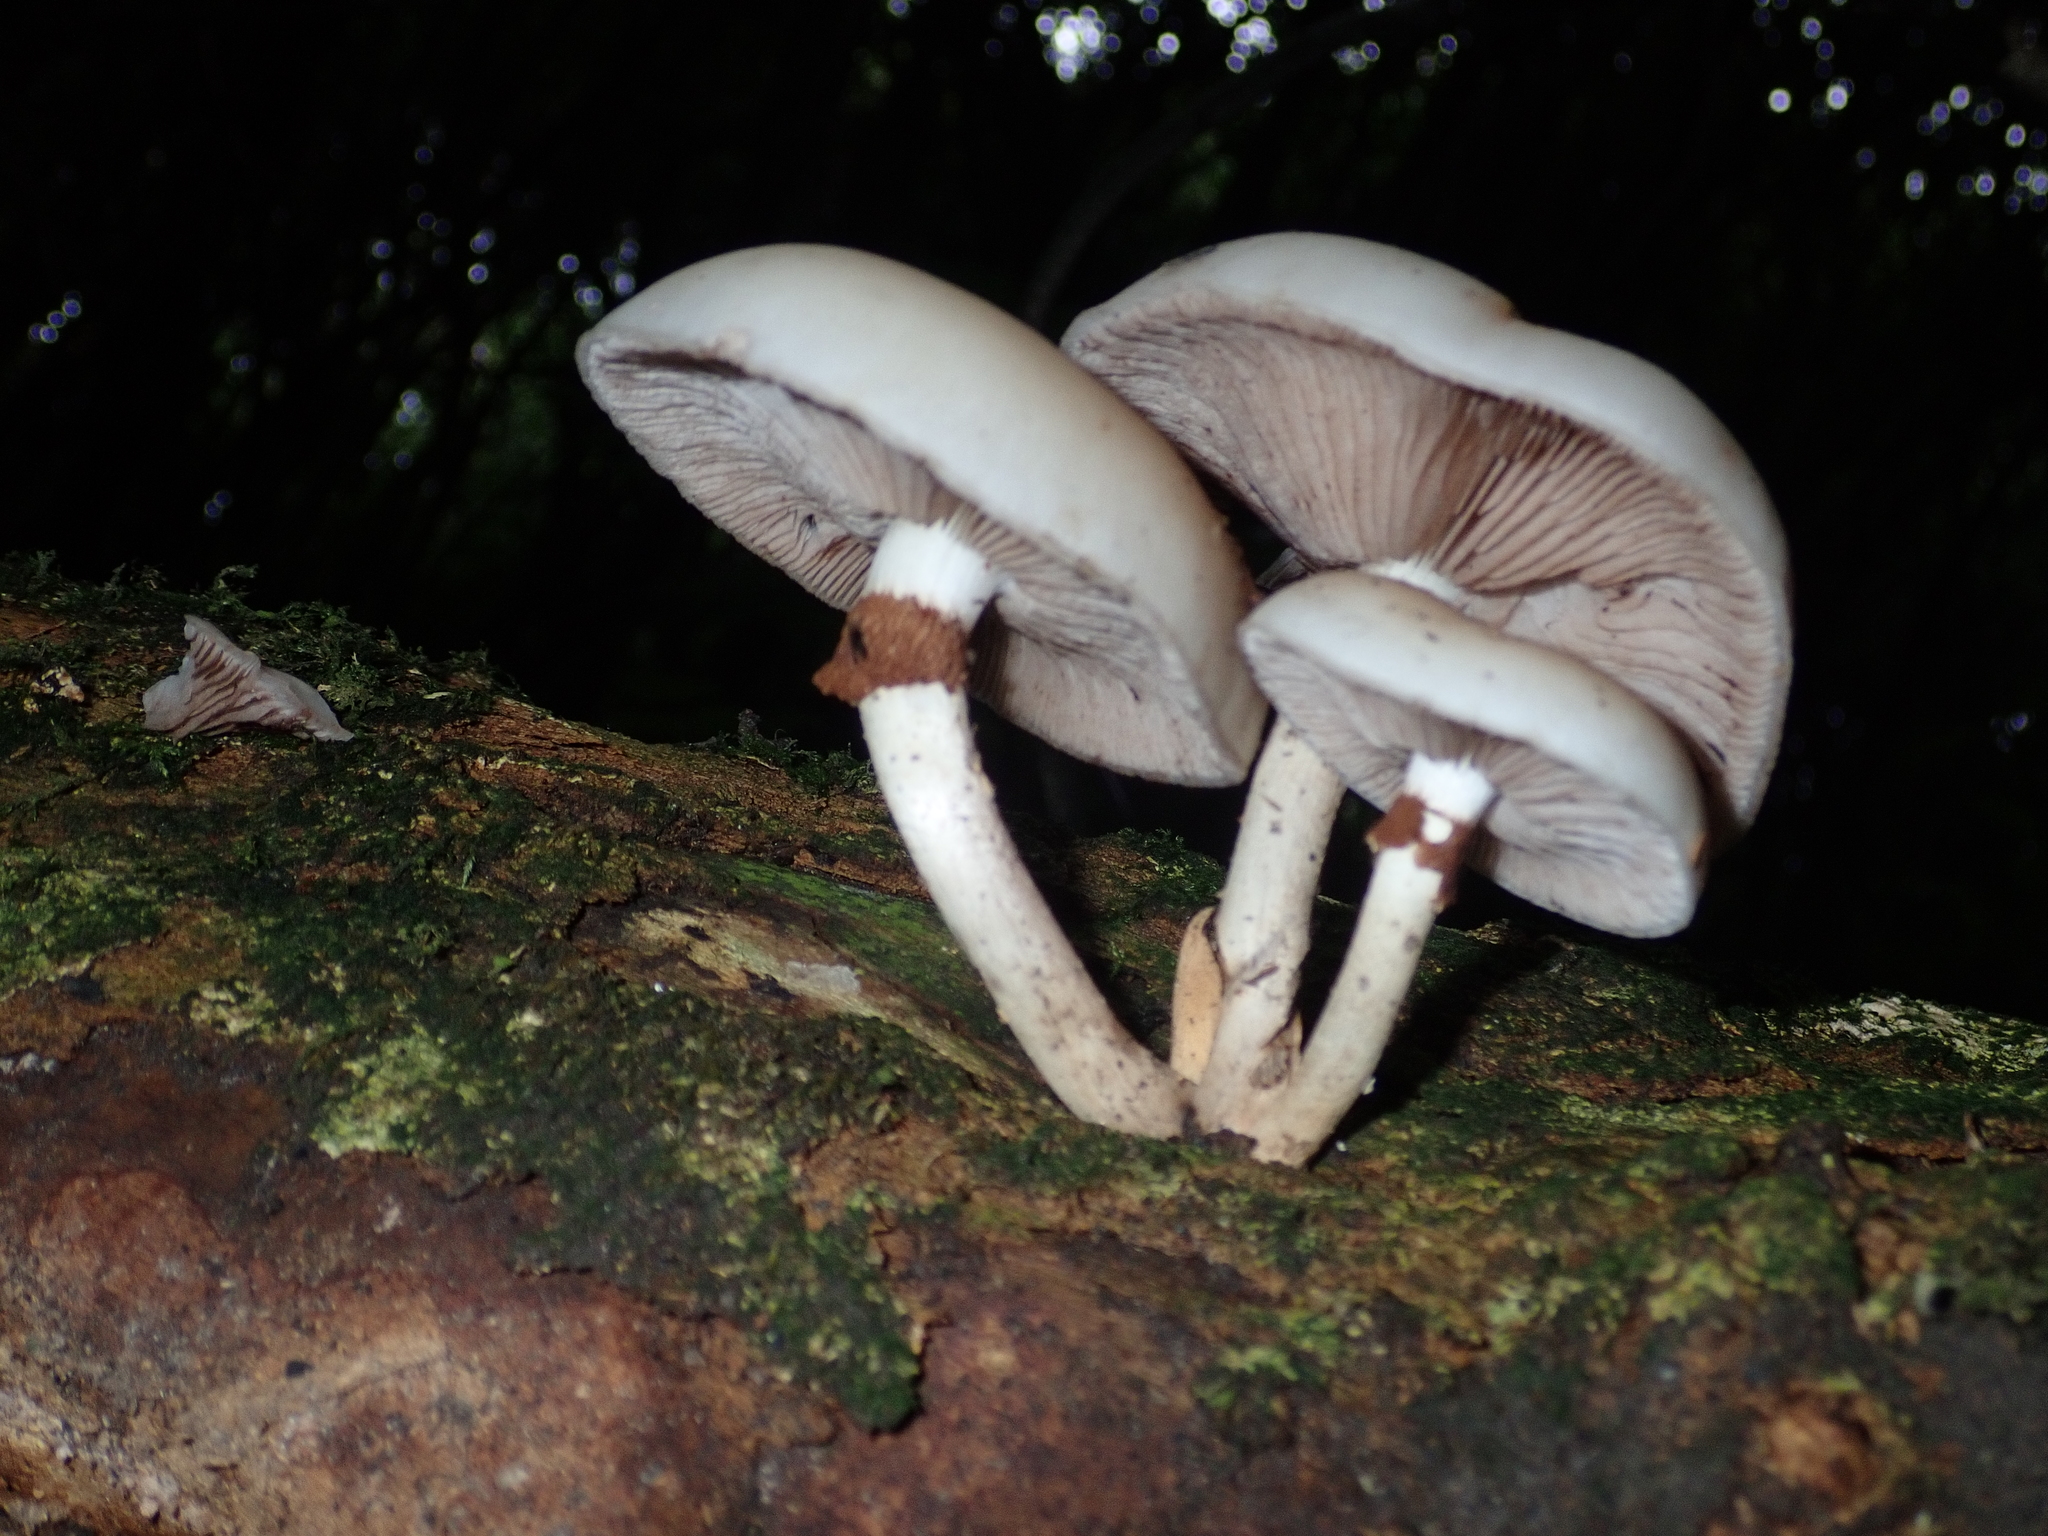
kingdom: Fungi
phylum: Basidiomycota
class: Agaricomycetes
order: Agaricales
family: Tubariaceae
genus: Cyclocybe
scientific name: Cyclocybe parasitica
